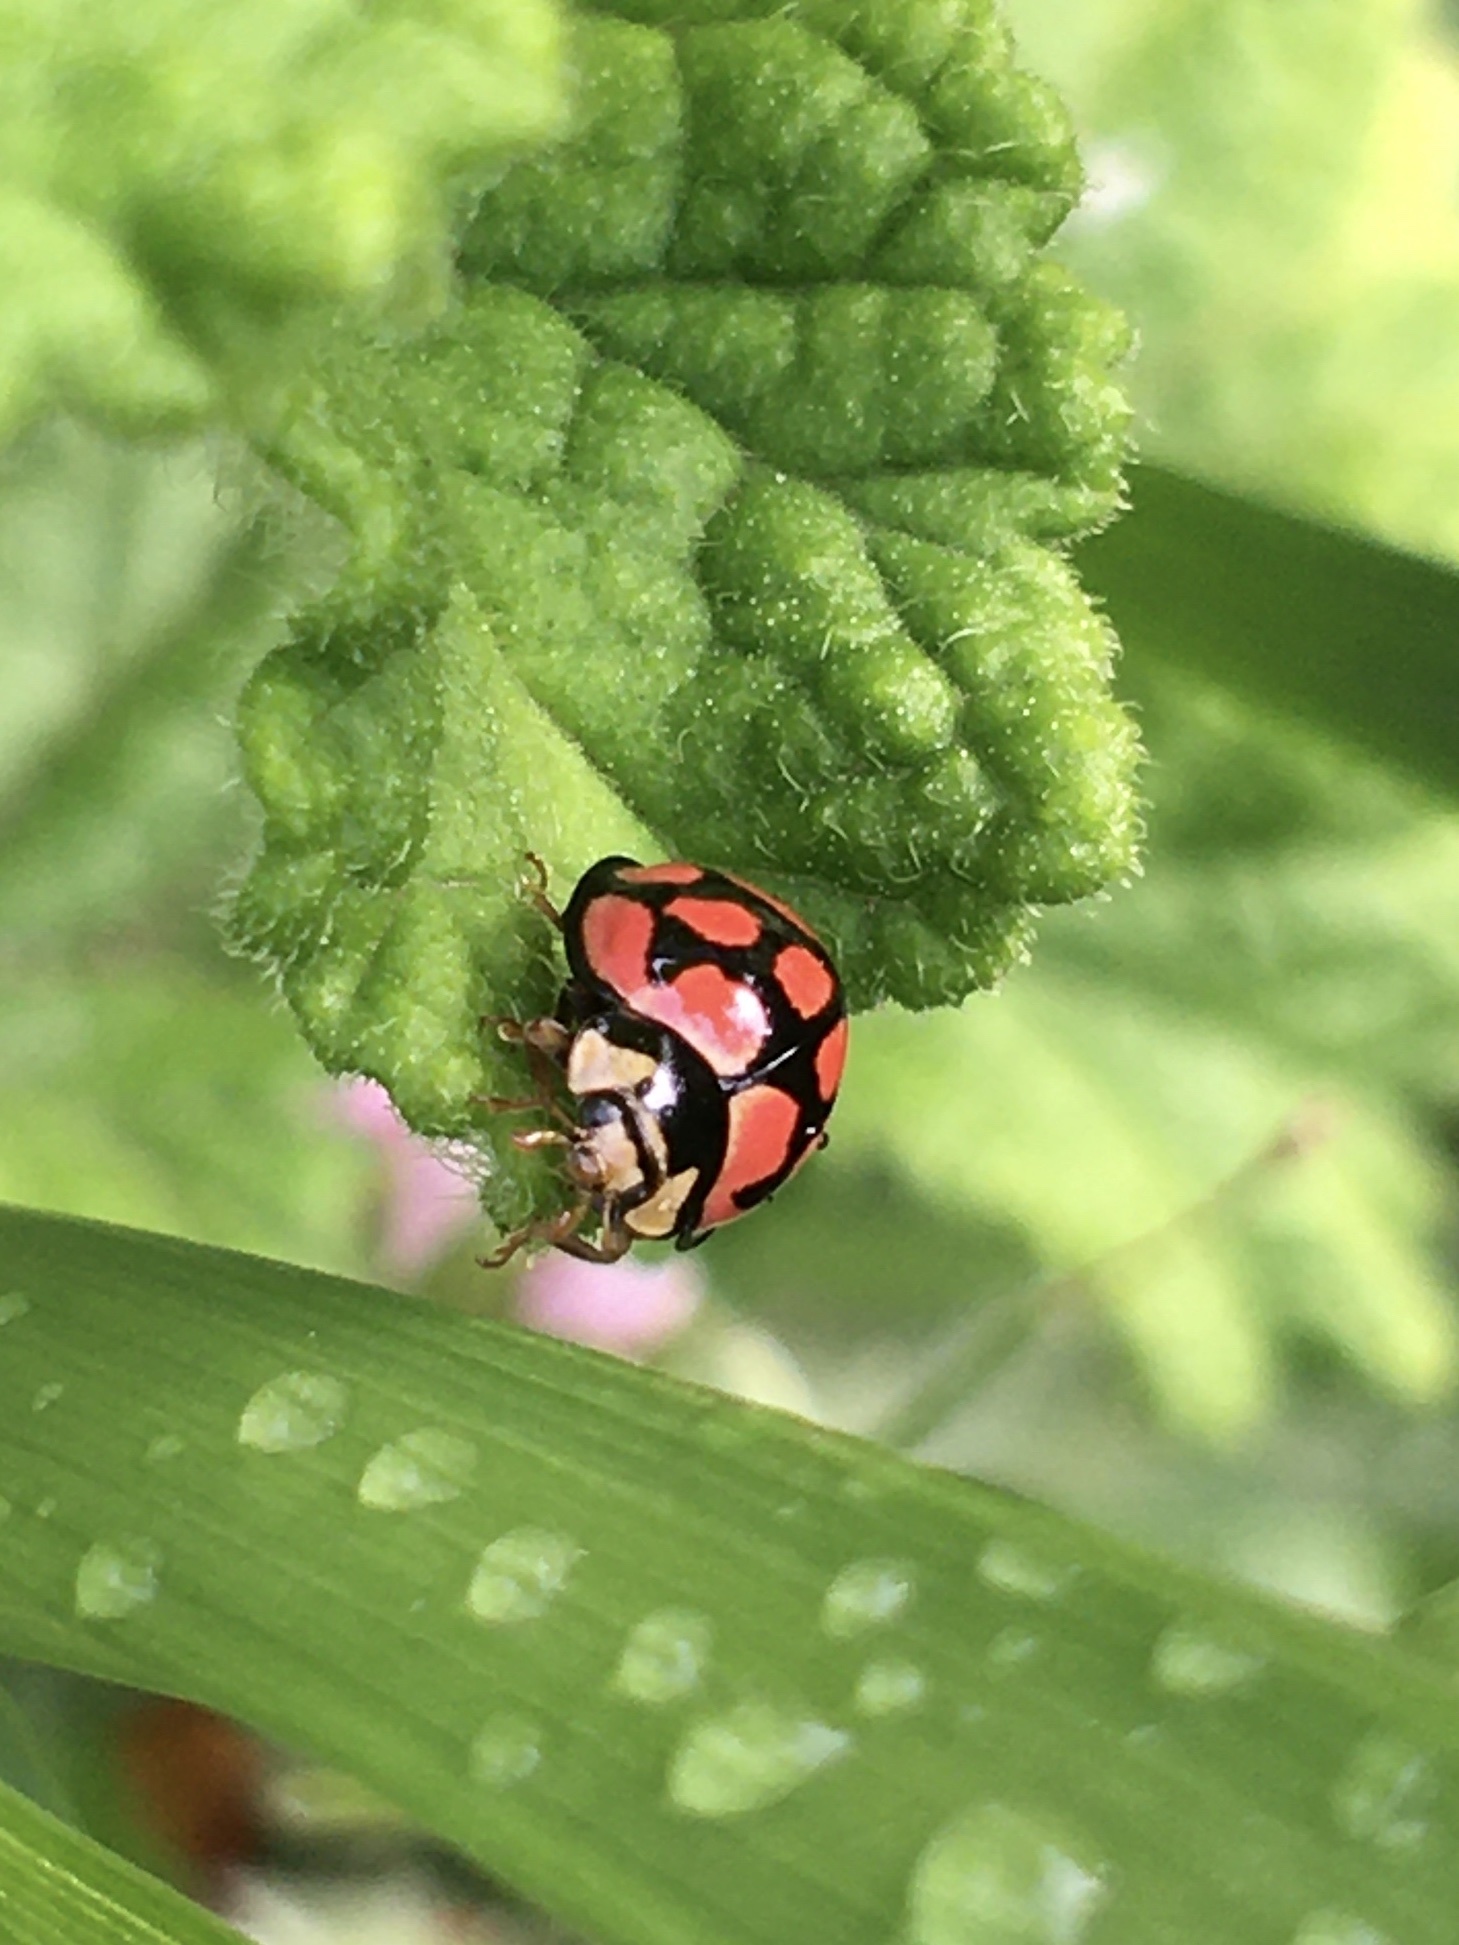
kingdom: Animalia
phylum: Arthropoda
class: Insecta
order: Coleoptera
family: Coccinellidae
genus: Cheilomenes
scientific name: Cheilomenes lunata
